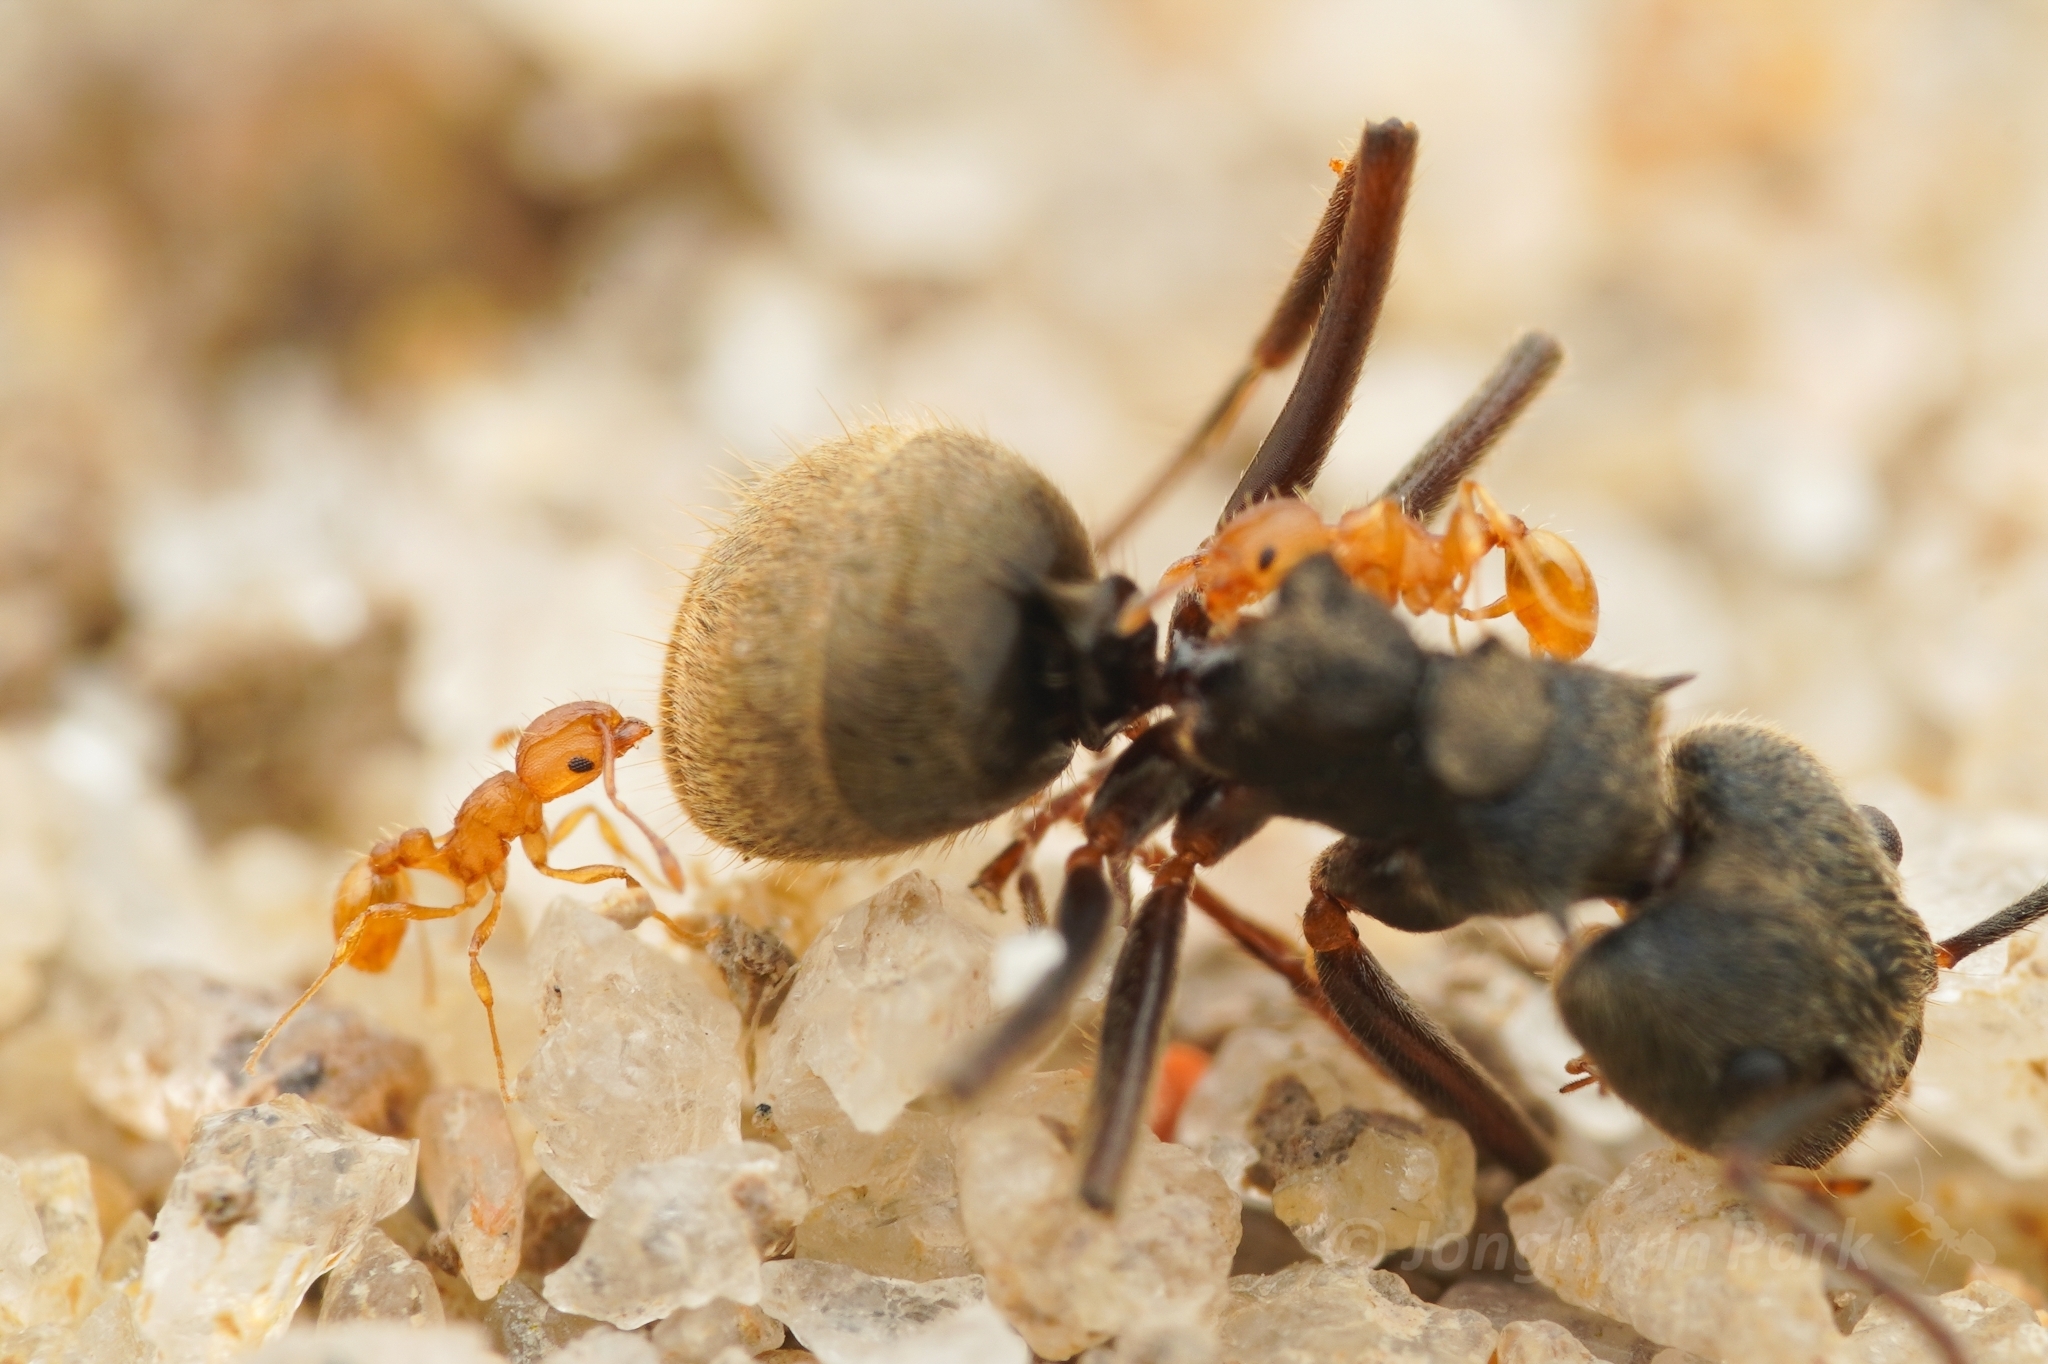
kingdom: Animalia
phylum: Arthropoda
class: Insecta
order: Hymenoptera
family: Formicidae
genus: Wasmannia
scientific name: Wasmannia auropunctata
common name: Little fire ant
